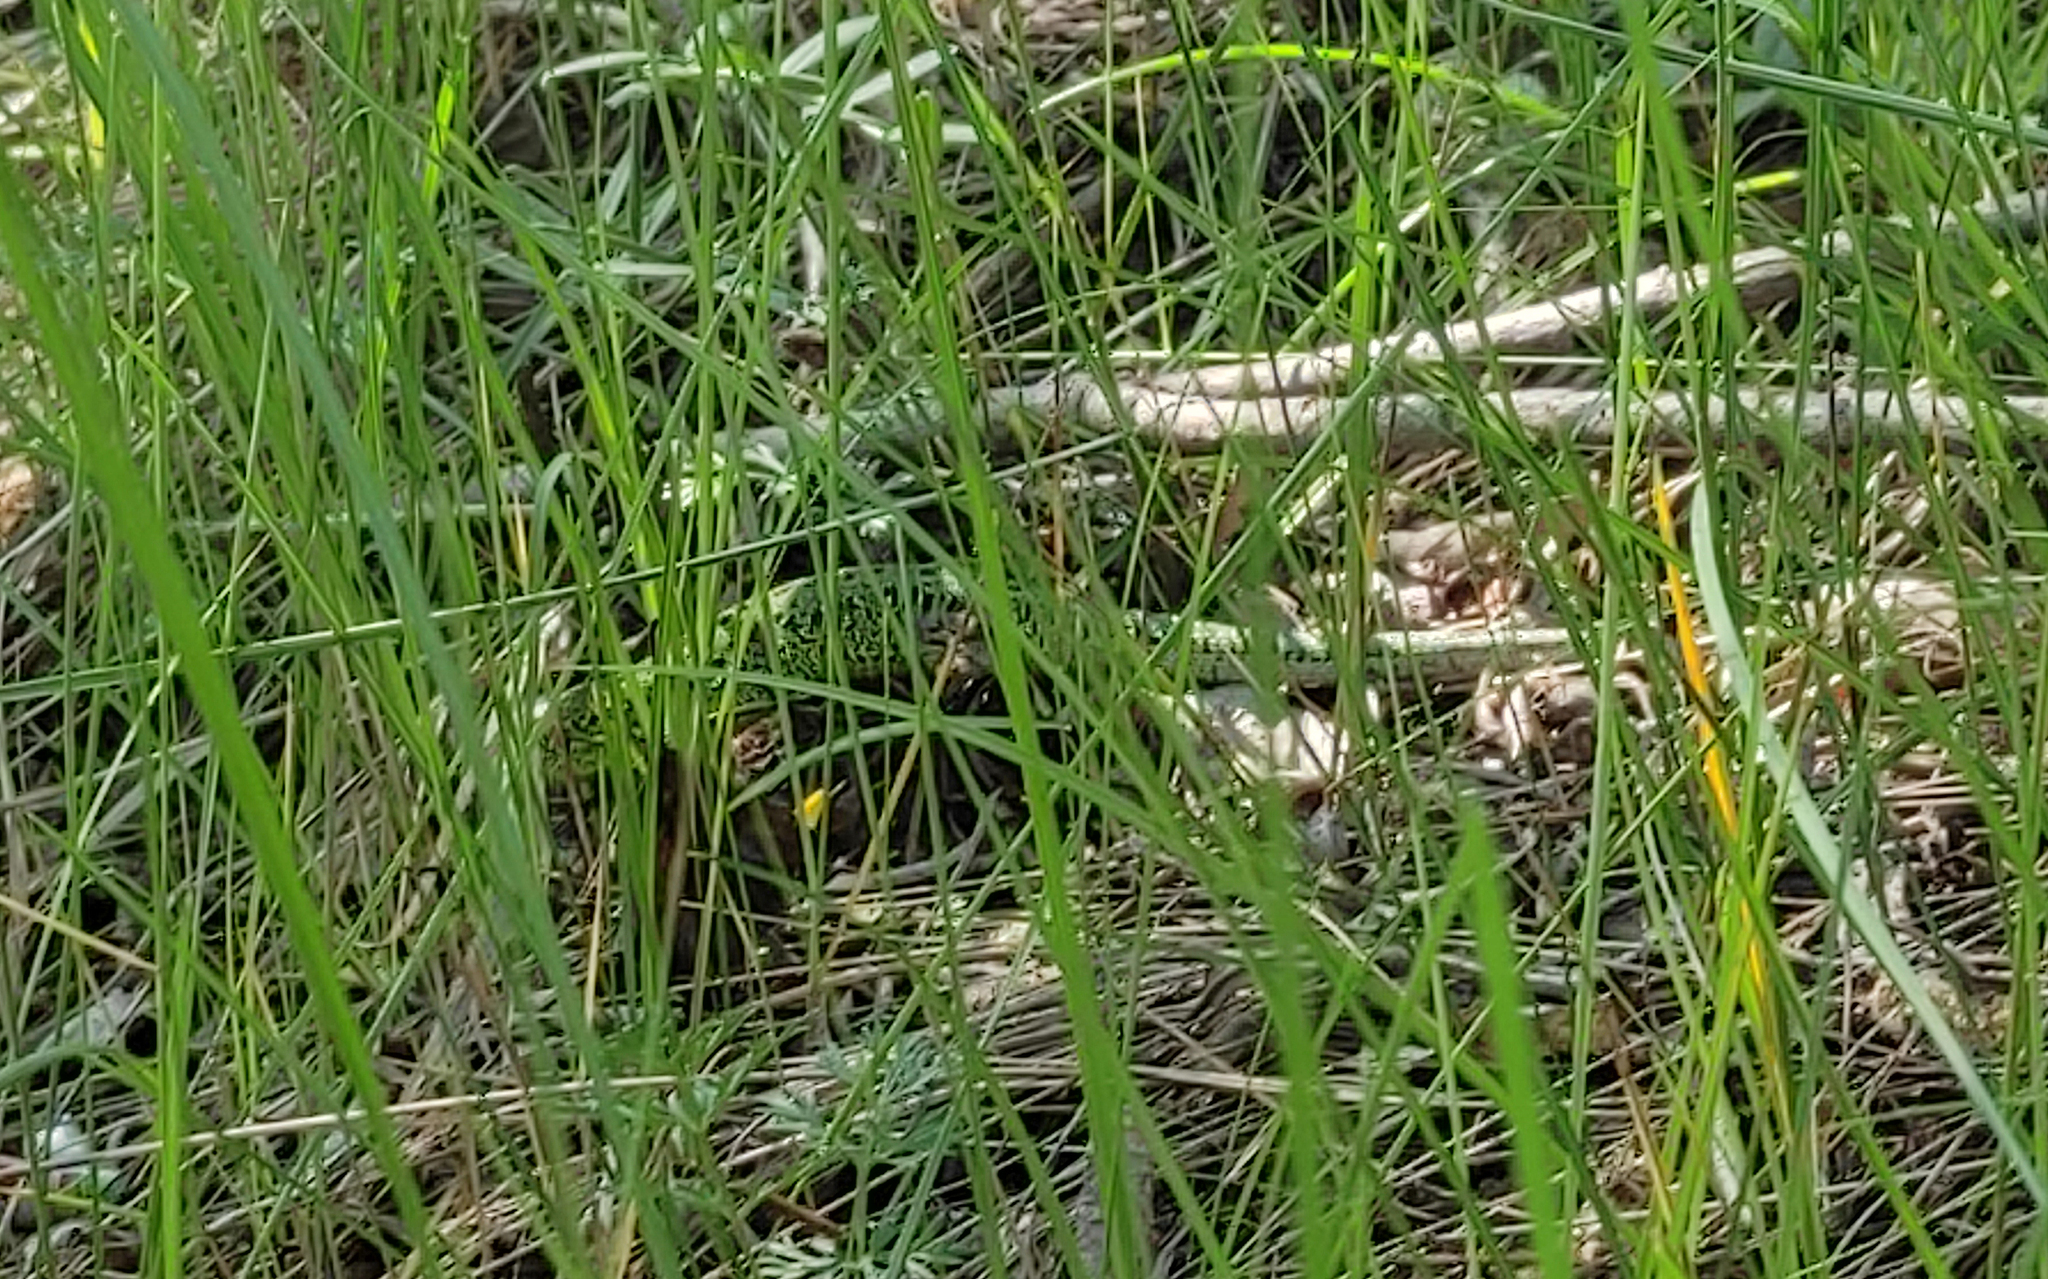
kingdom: Animalia
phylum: Chordata
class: Squamata
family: Lacertidae
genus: Lacerta
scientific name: Lacerta agilis
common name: Sand lizard
